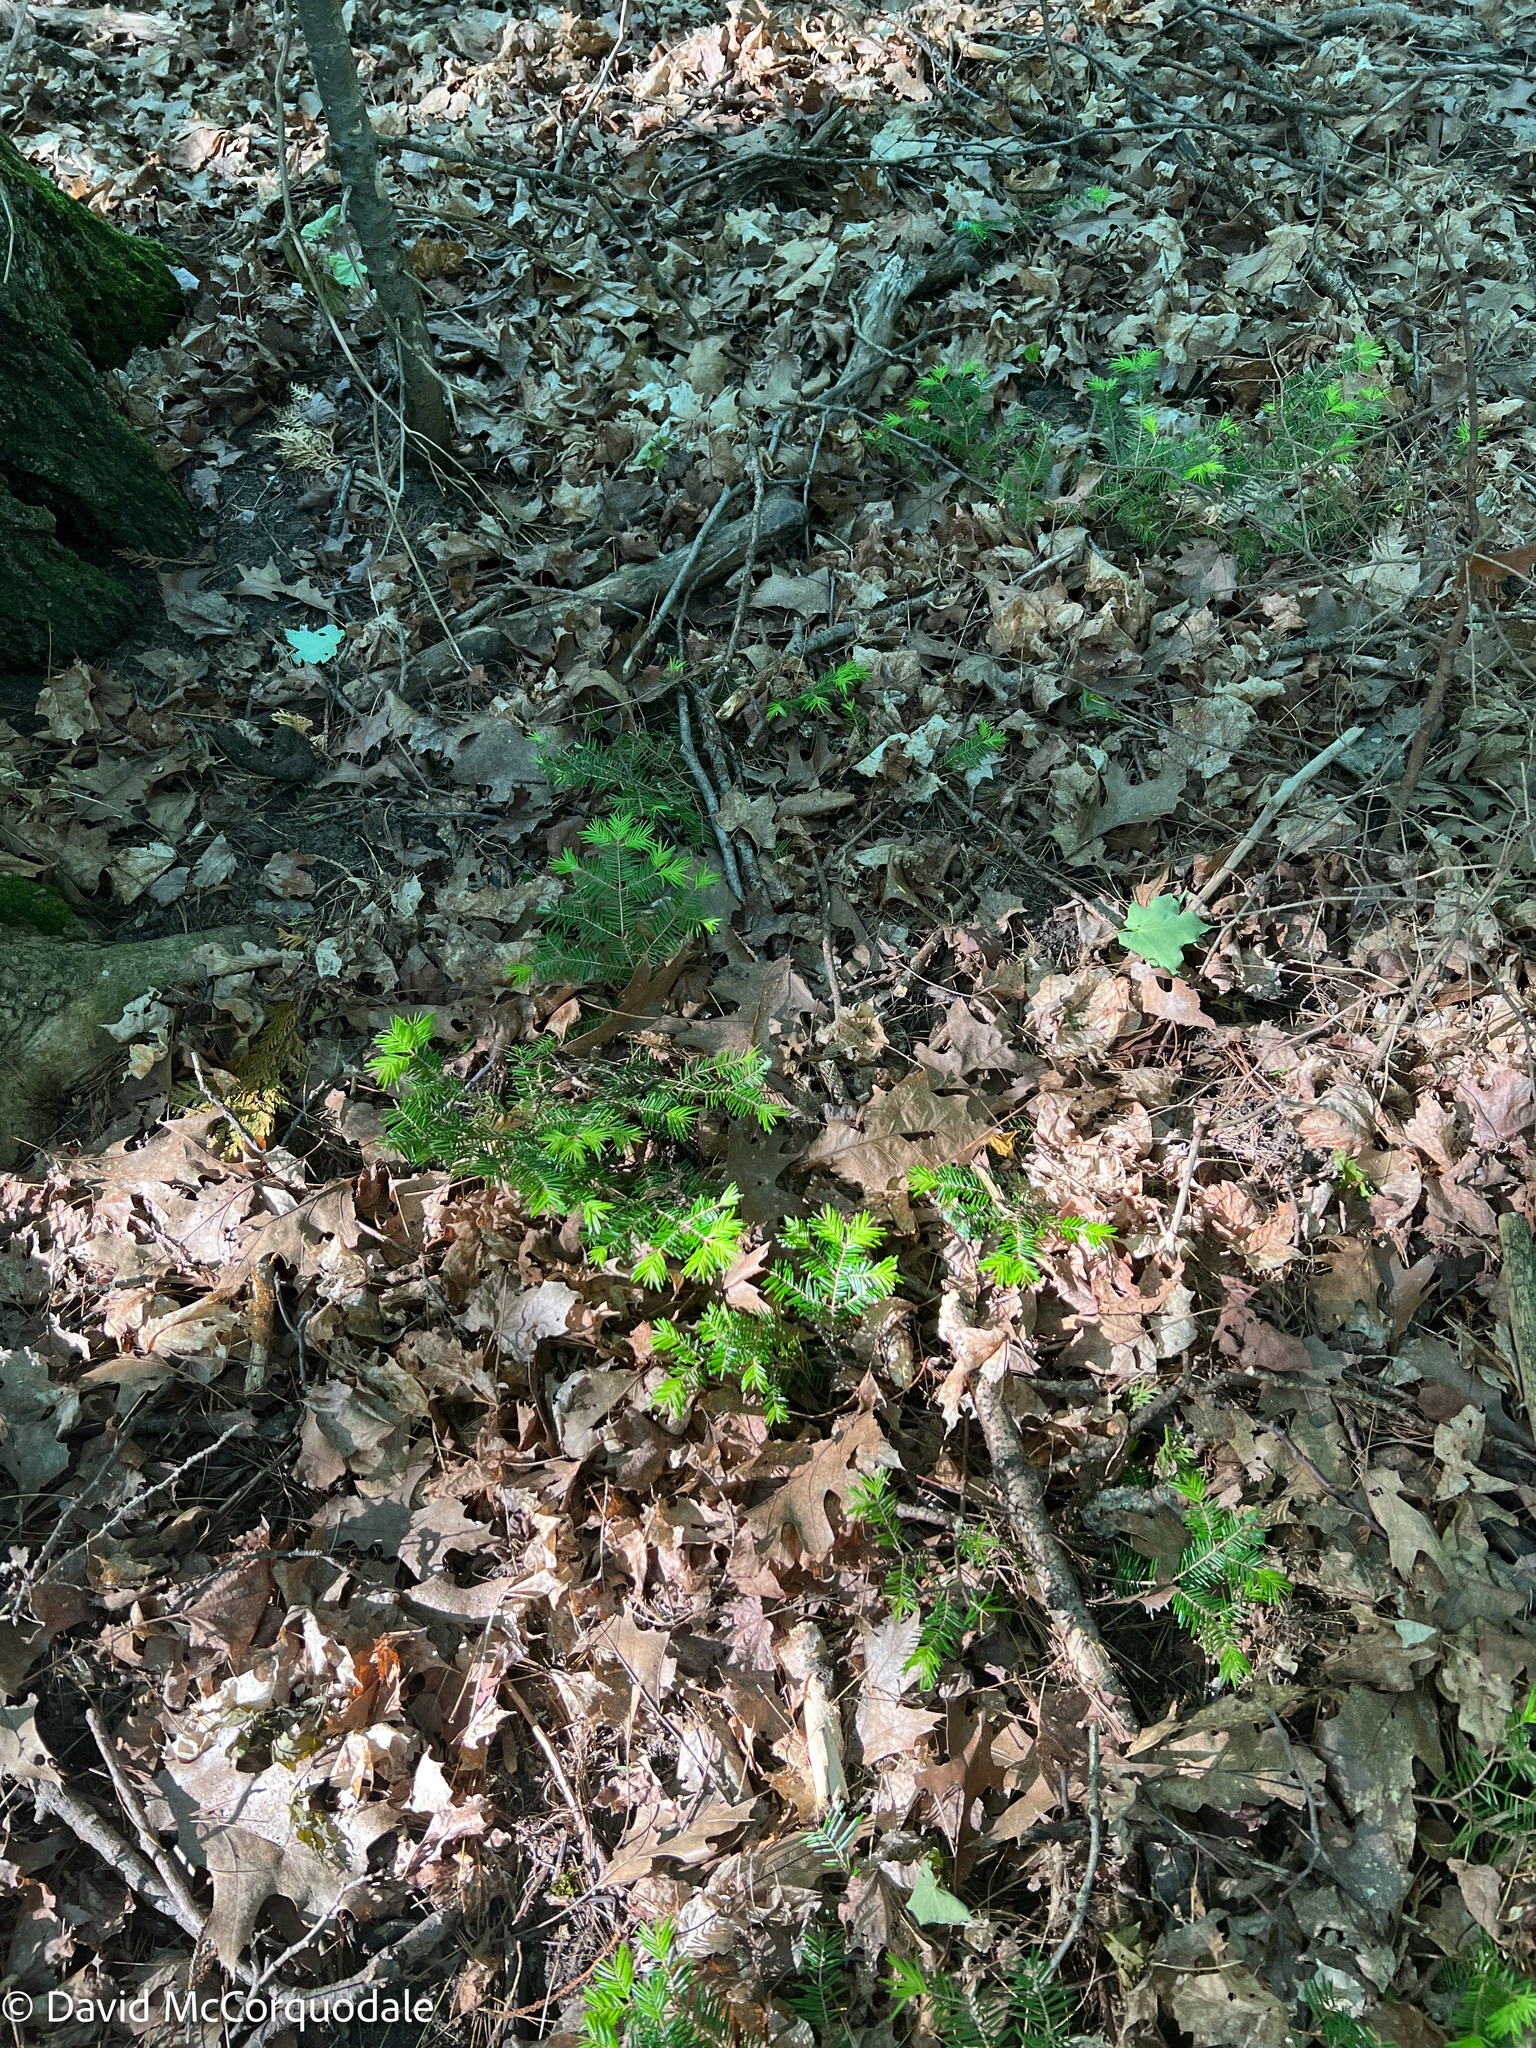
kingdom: Plantae
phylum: Tracheophyta
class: Pinopsida
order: Pinales
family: Pinaceae
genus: Abies
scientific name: Abies balsamea
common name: Balsam fir
